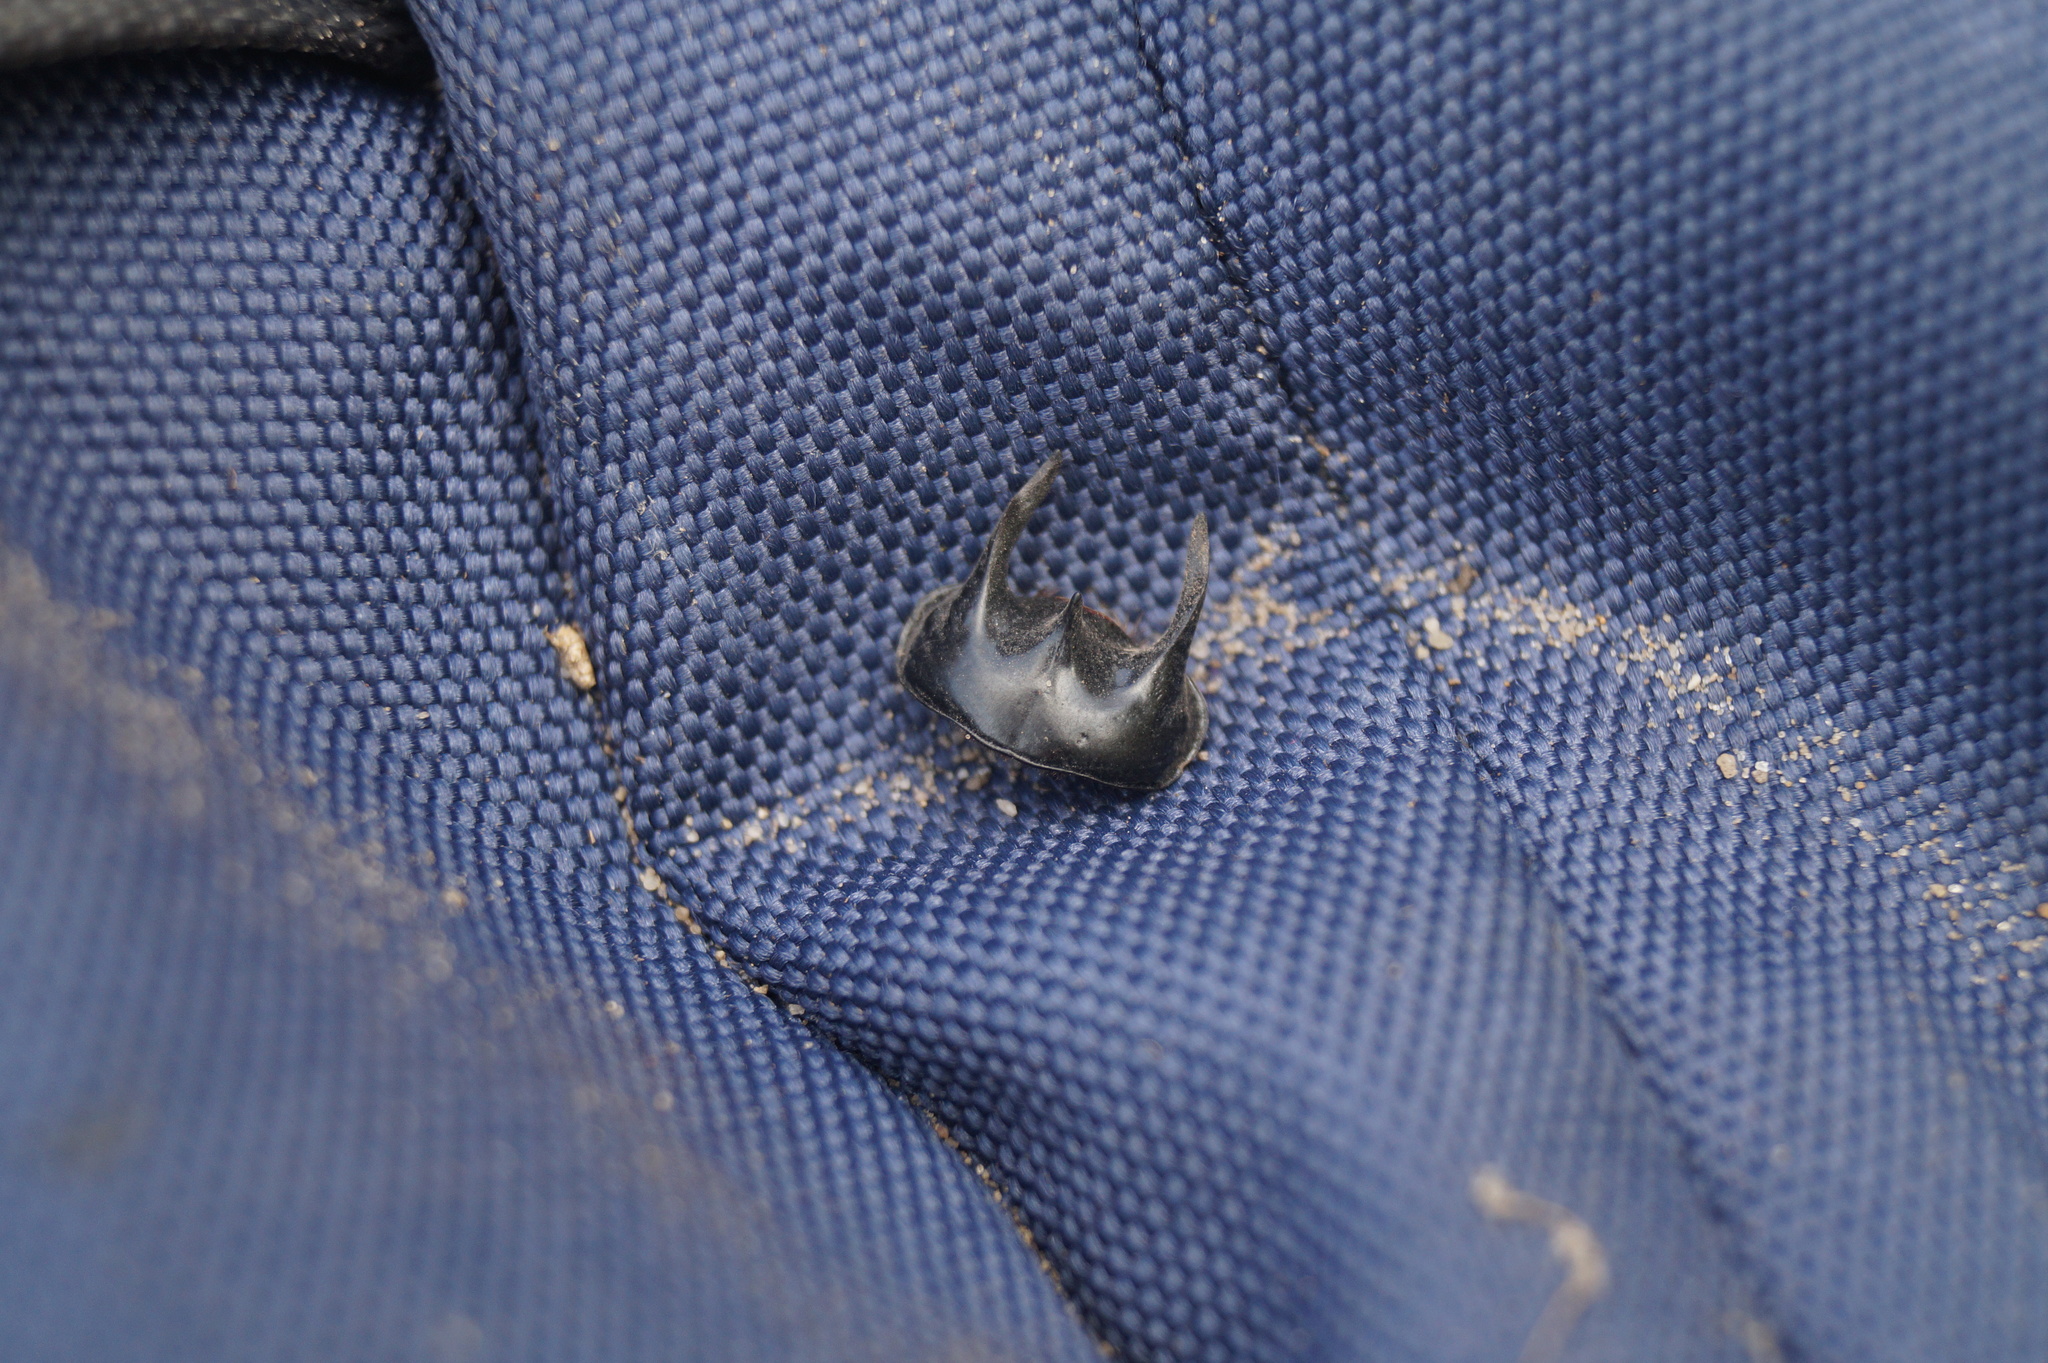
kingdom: Animalia
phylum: Arthropoda
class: Insecta
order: Coleoptera
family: Geotrupidae
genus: Typhaeus
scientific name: Typhaeus typhoeus
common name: Minotaur beetle
